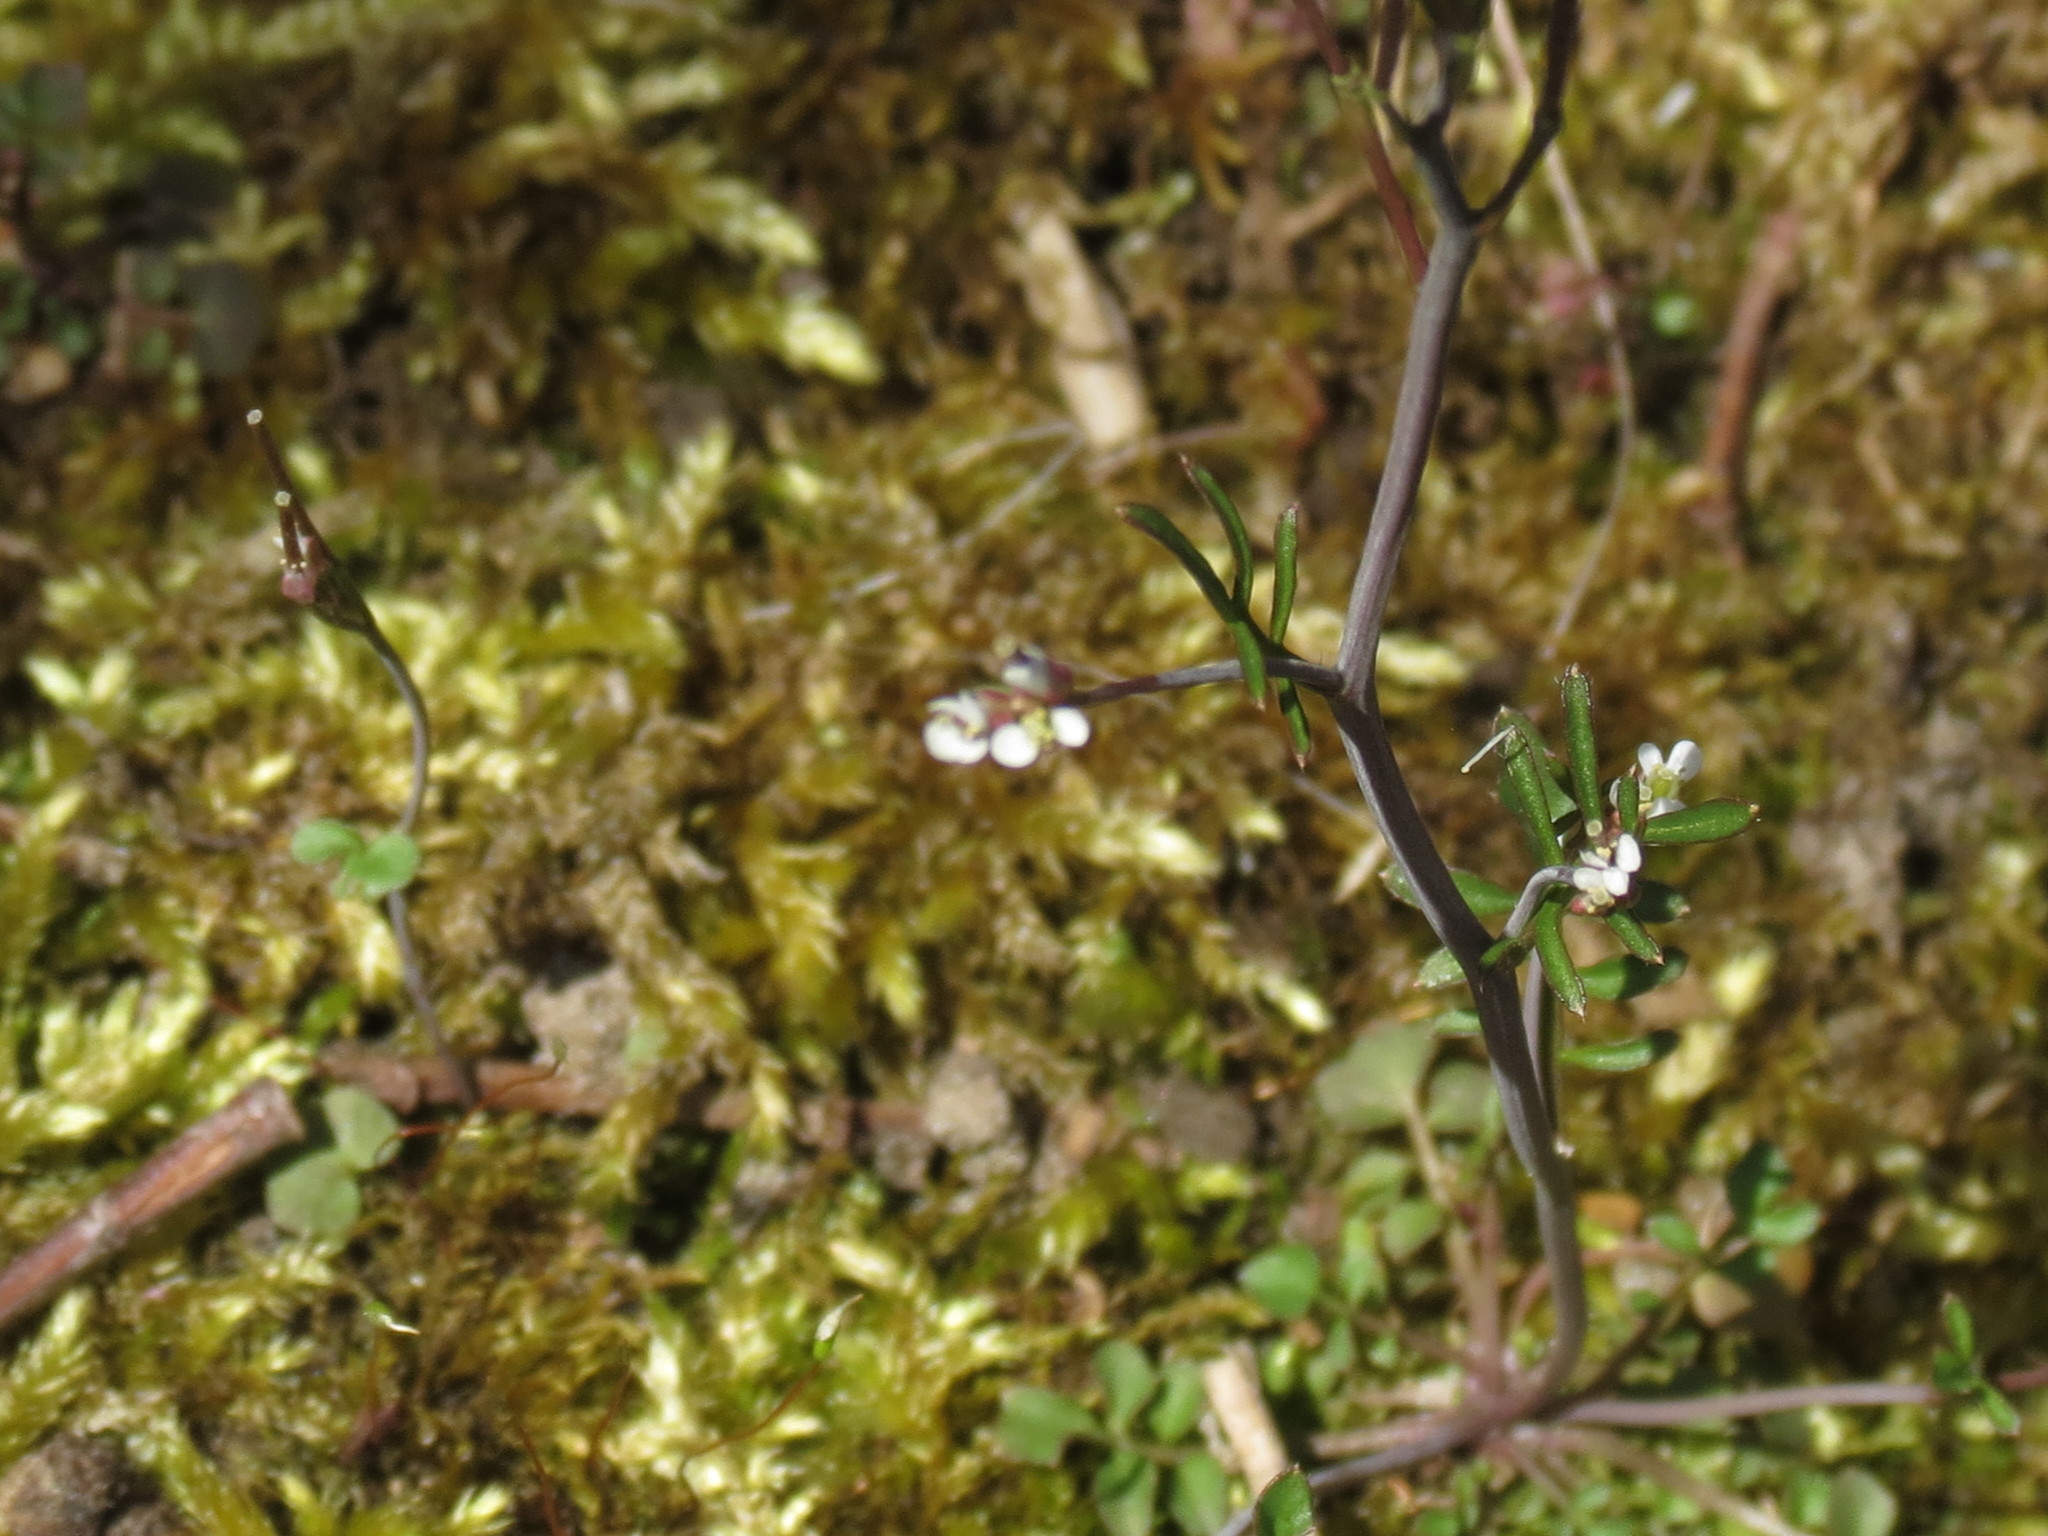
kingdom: Plantae
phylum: Tracheophyta
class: Magnoliopsida
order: Brassicales
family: Brassicaceae
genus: Cardamine
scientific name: Cardamine parviflora
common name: Sand bittercress
